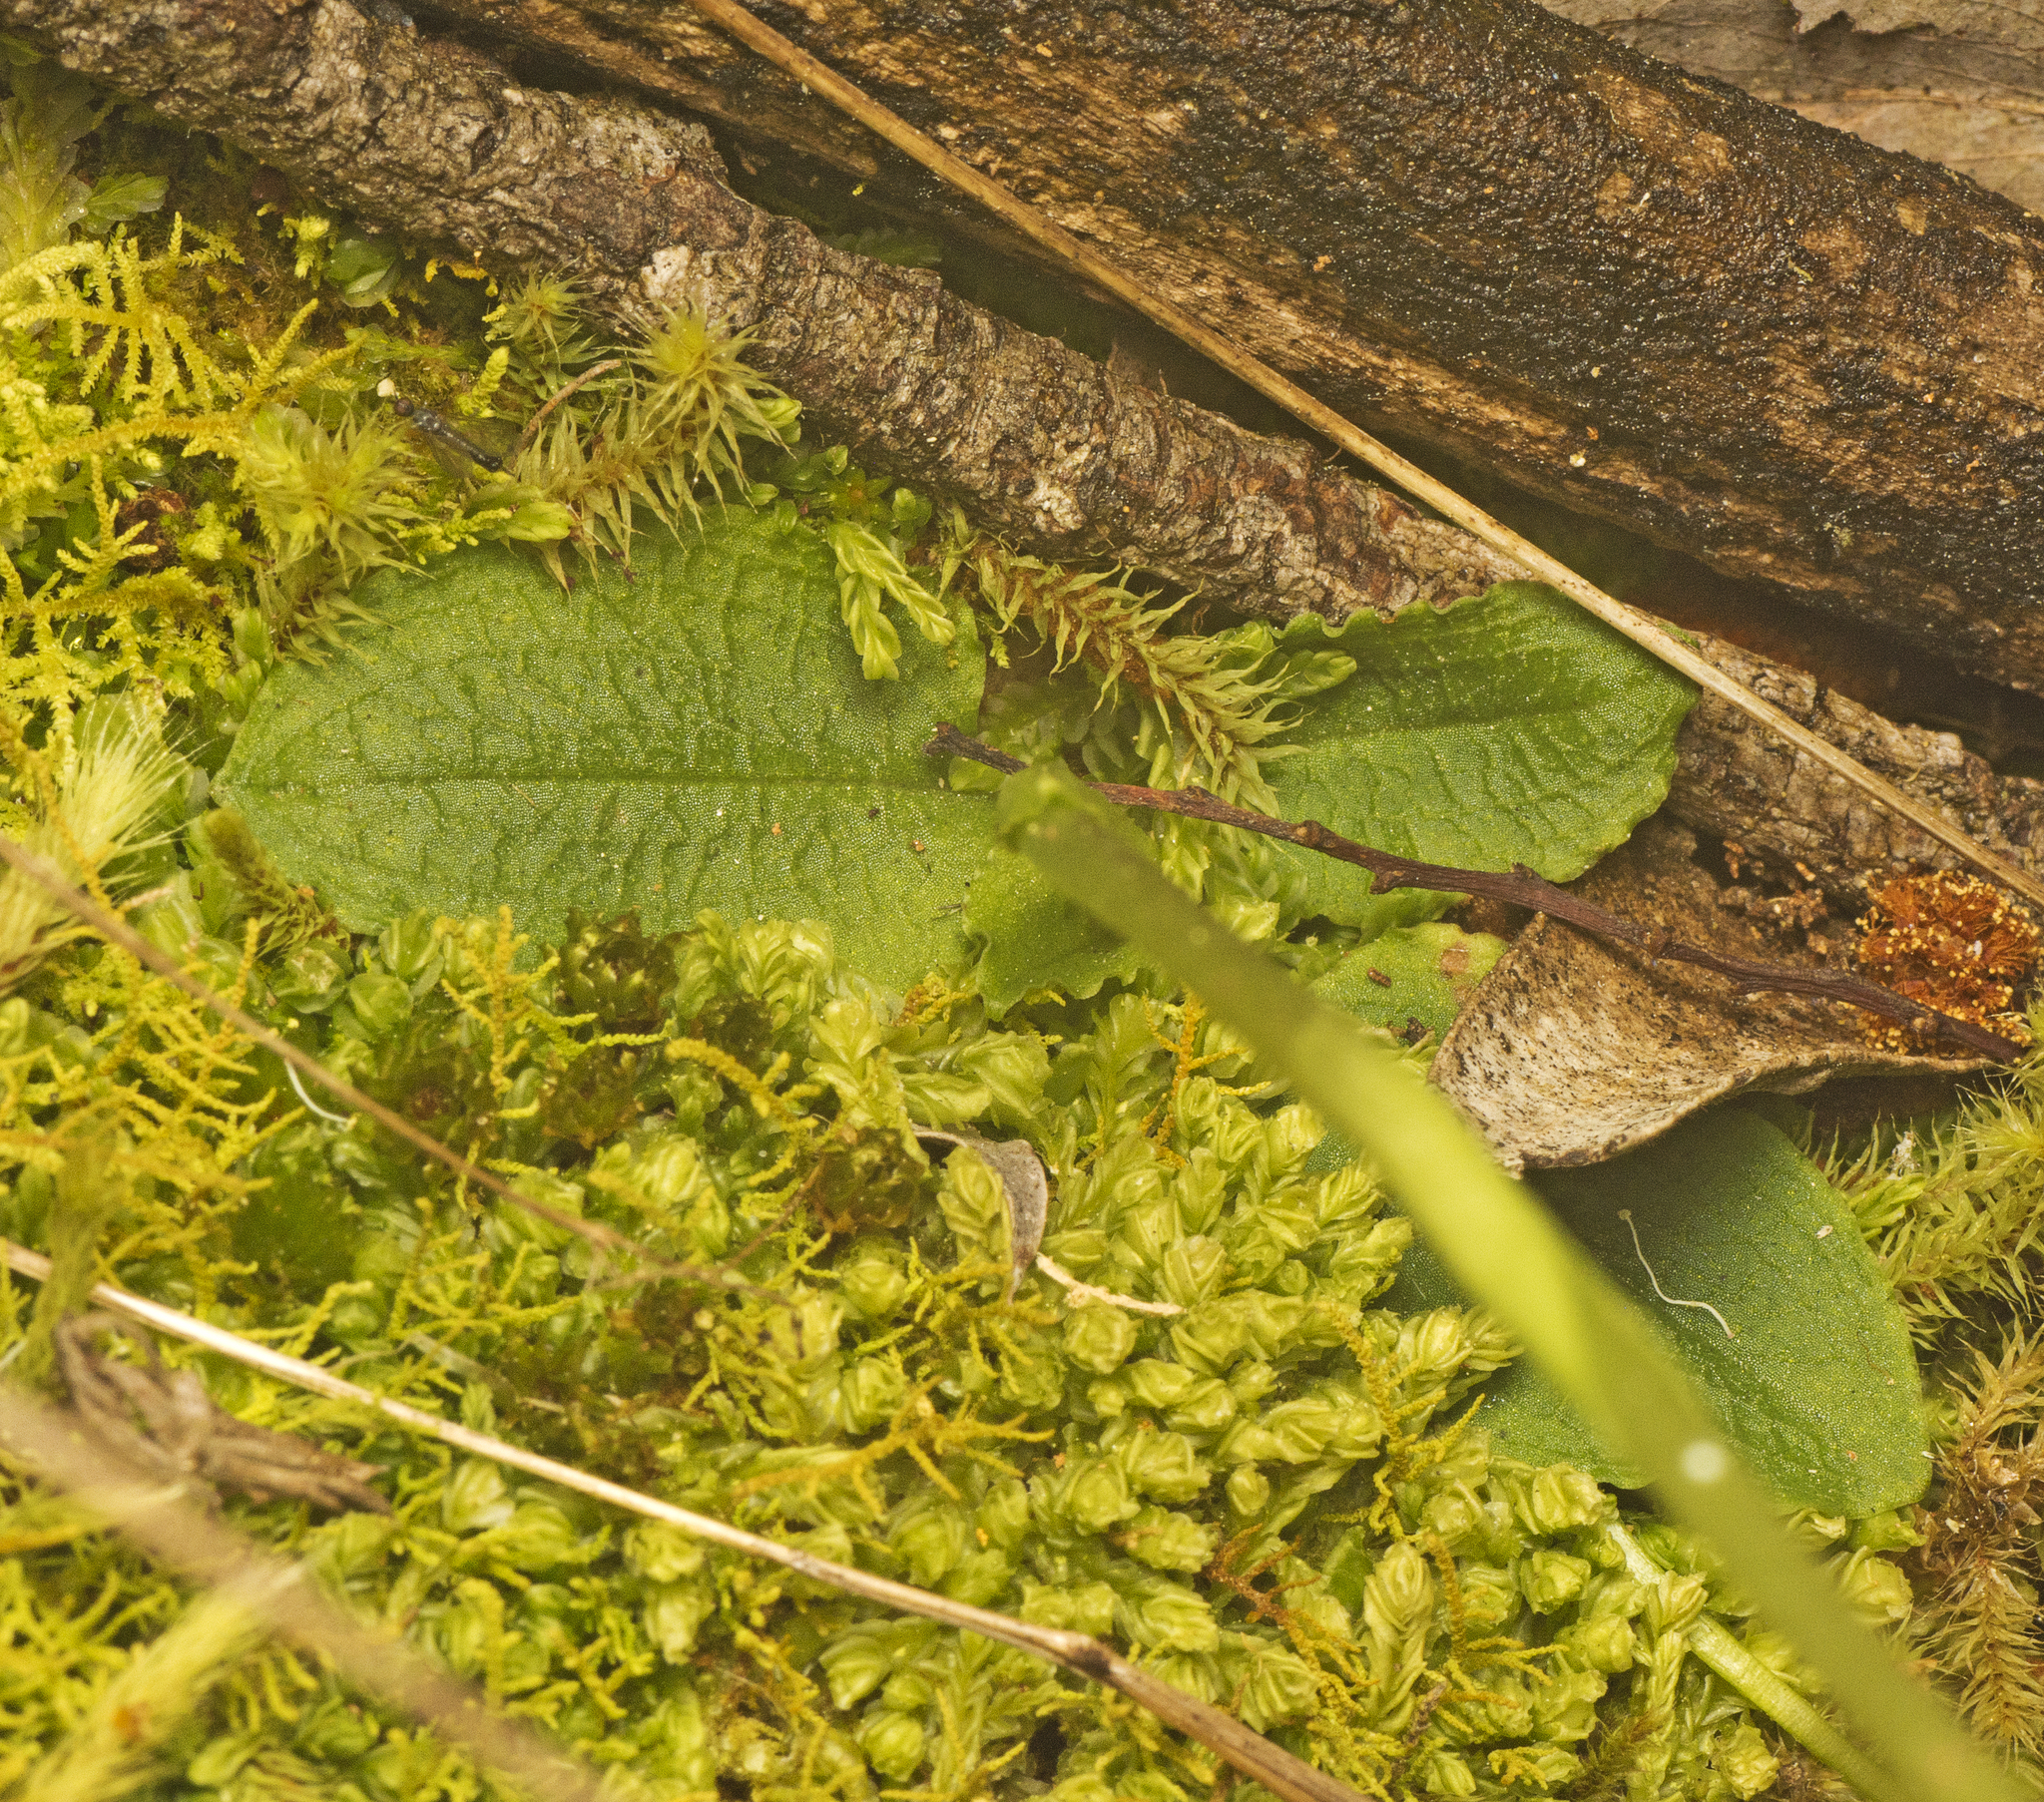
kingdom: Plantae
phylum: Tracheophyta
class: Liliopsida
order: Asparagales
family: Orchidaceae
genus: Pterostylis
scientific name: Pterostylis pedunculata
